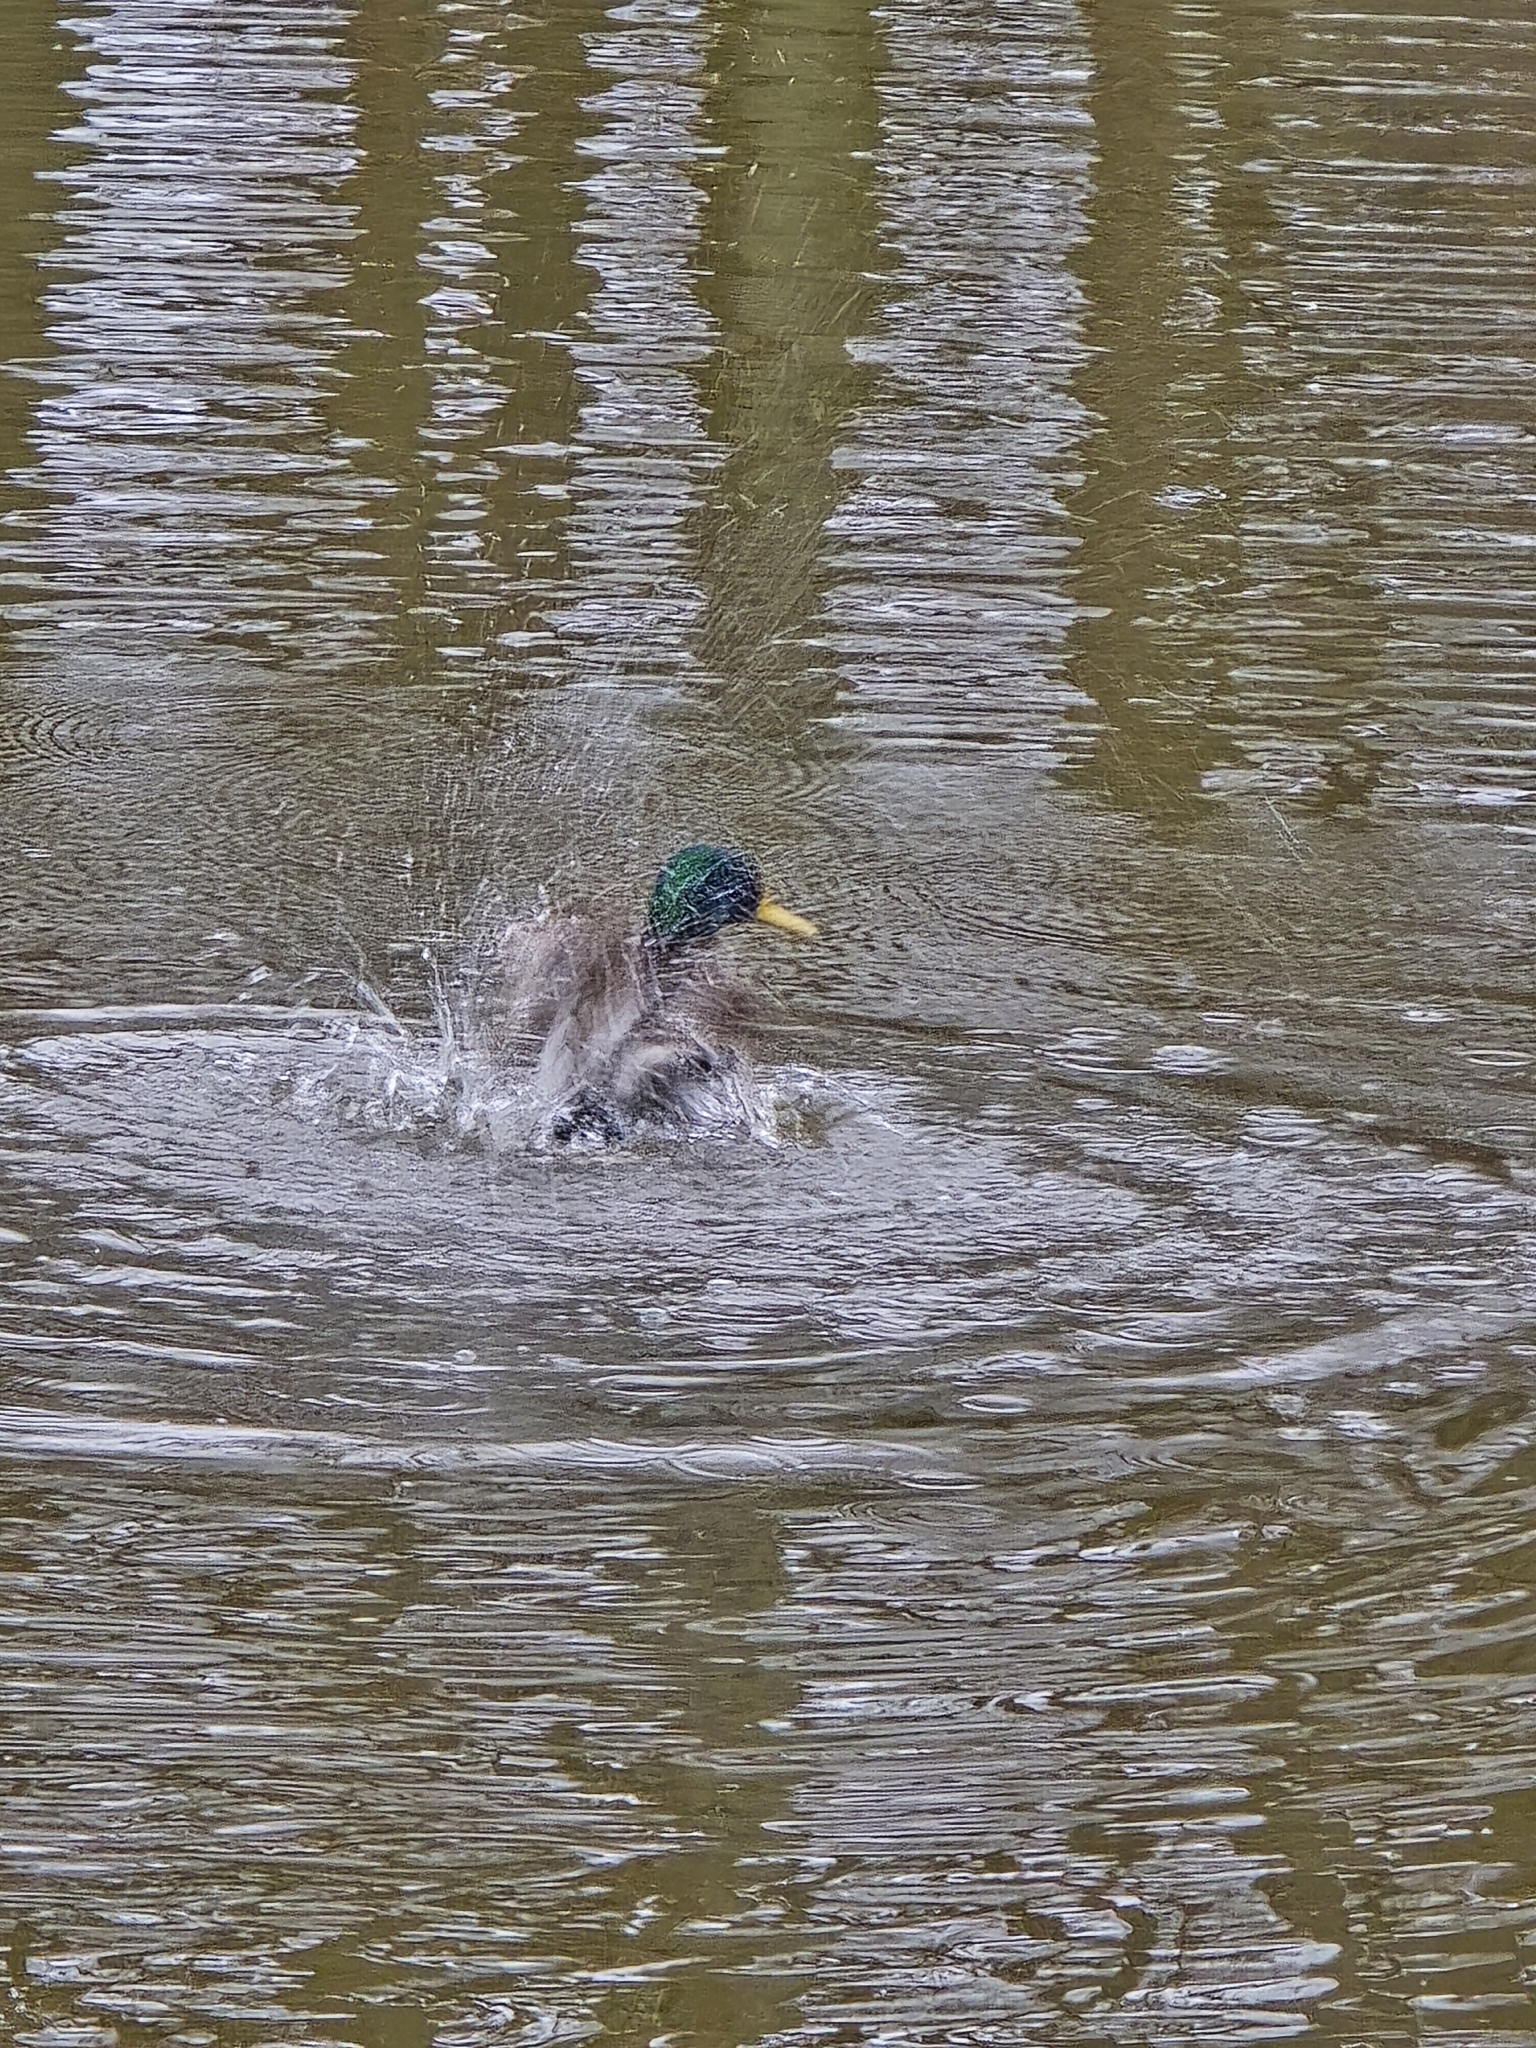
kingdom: Animalia
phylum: Chordata
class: Aves
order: Anseriformes
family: Anatidae
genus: Anas
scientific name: Anas platyrhynchos
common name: Mallard
